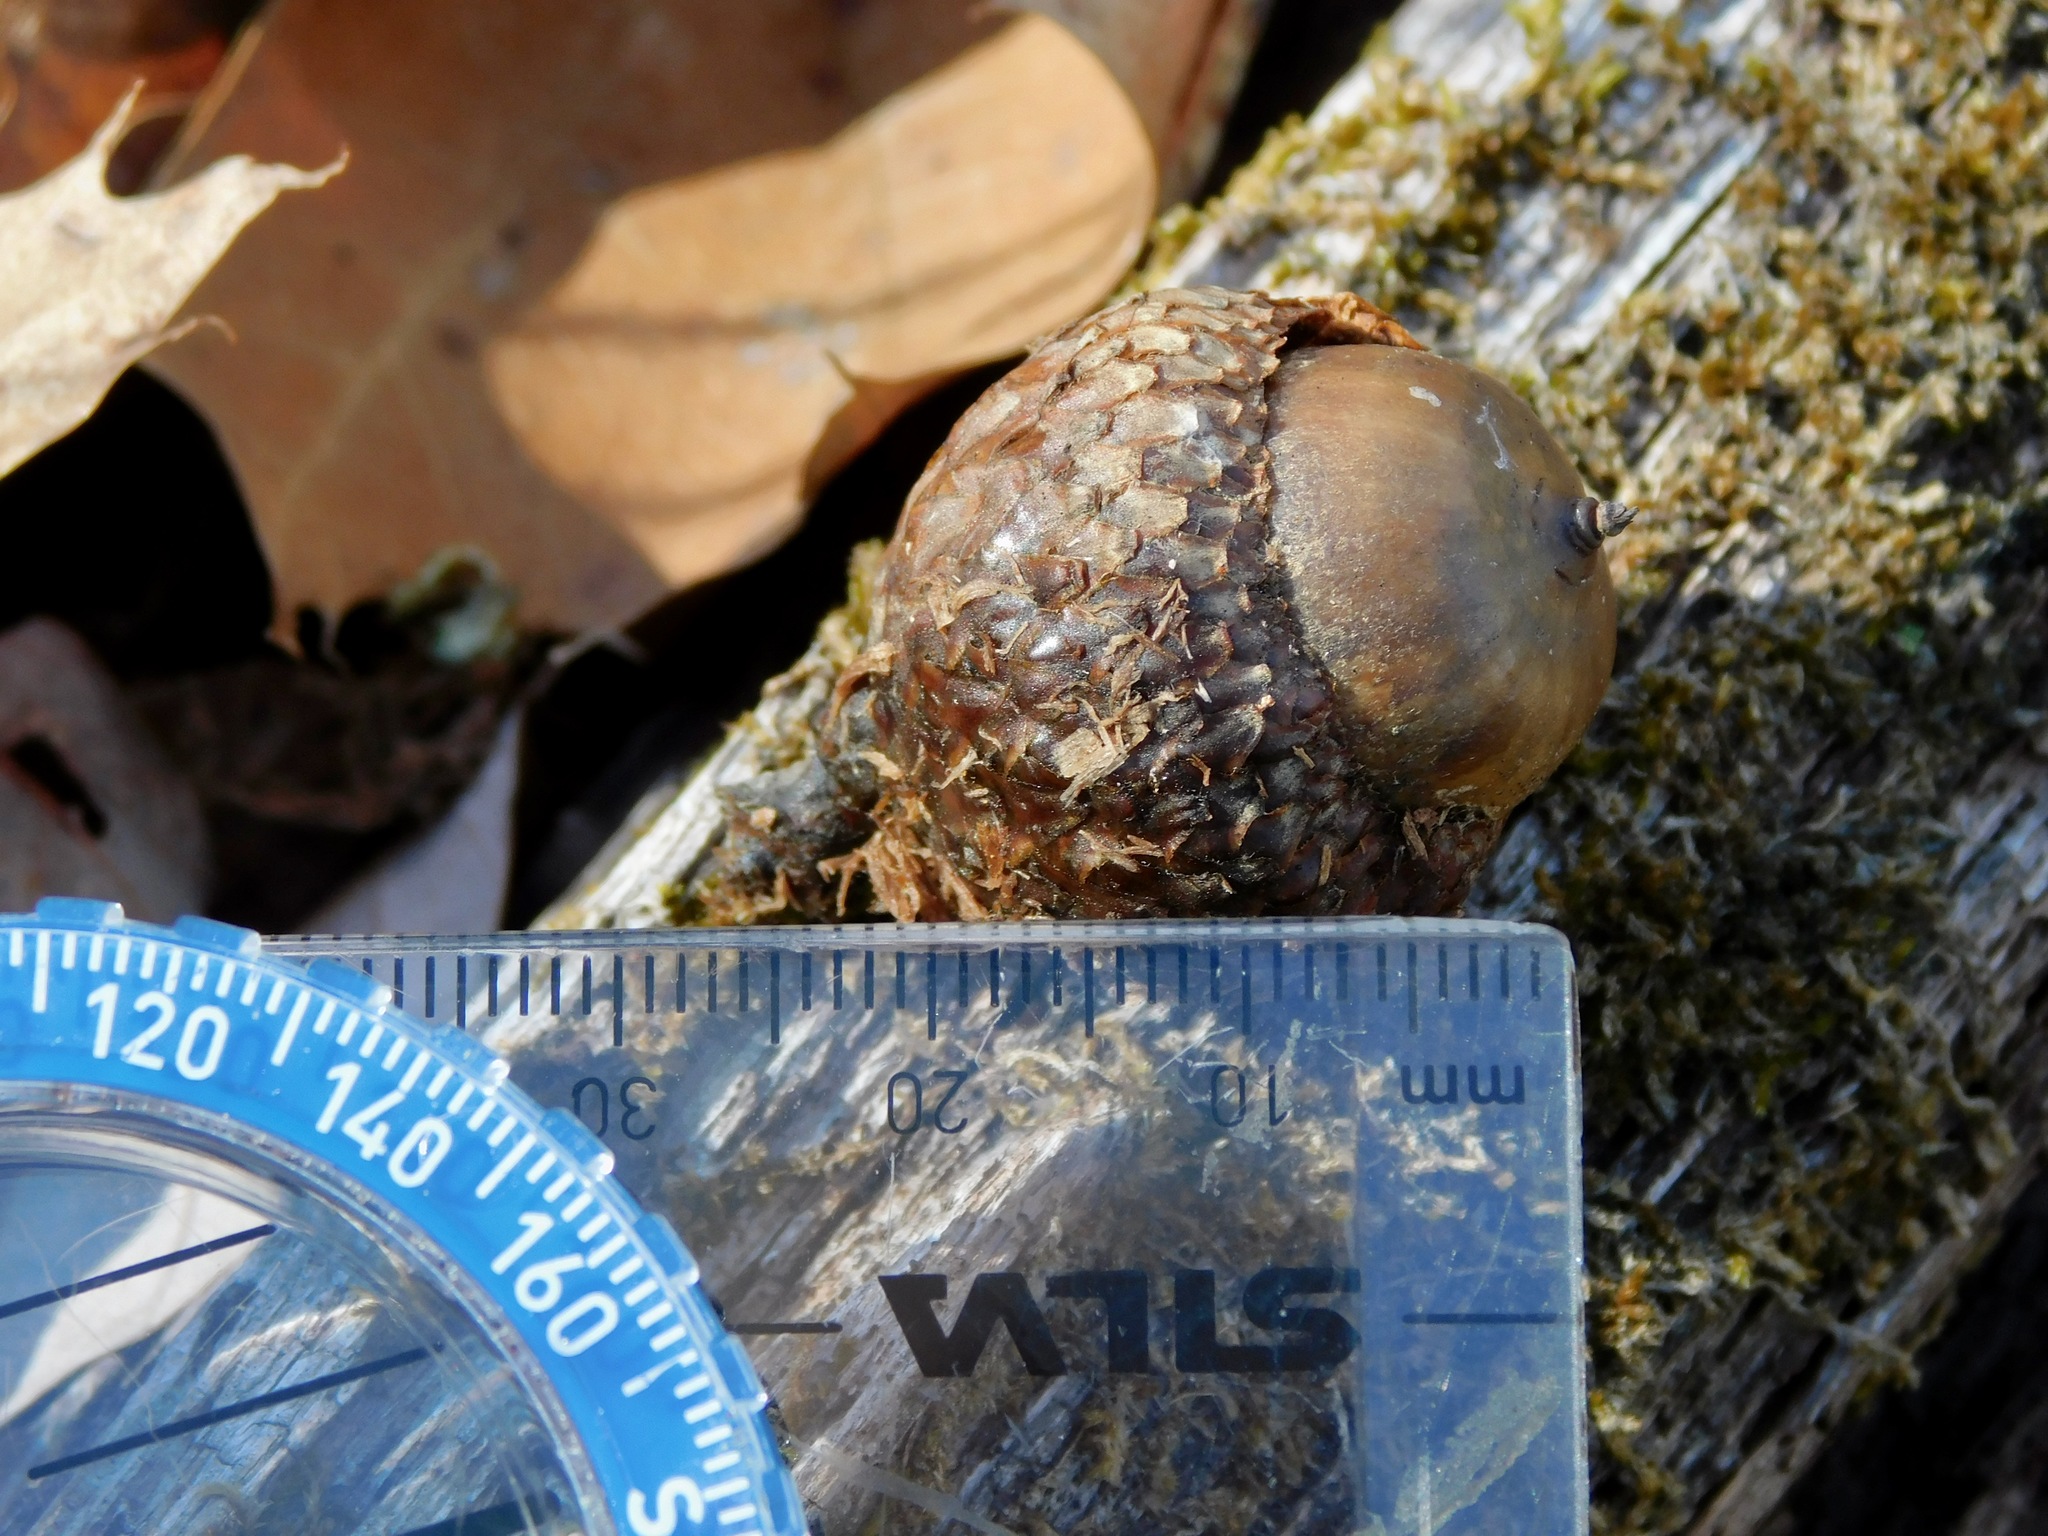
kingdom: Plantae
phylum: Tracheophyta
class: Magnoliopsida
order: Fagales
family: Fagaceae
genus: Quercus
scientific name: Quercus velutina
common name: Black oak
